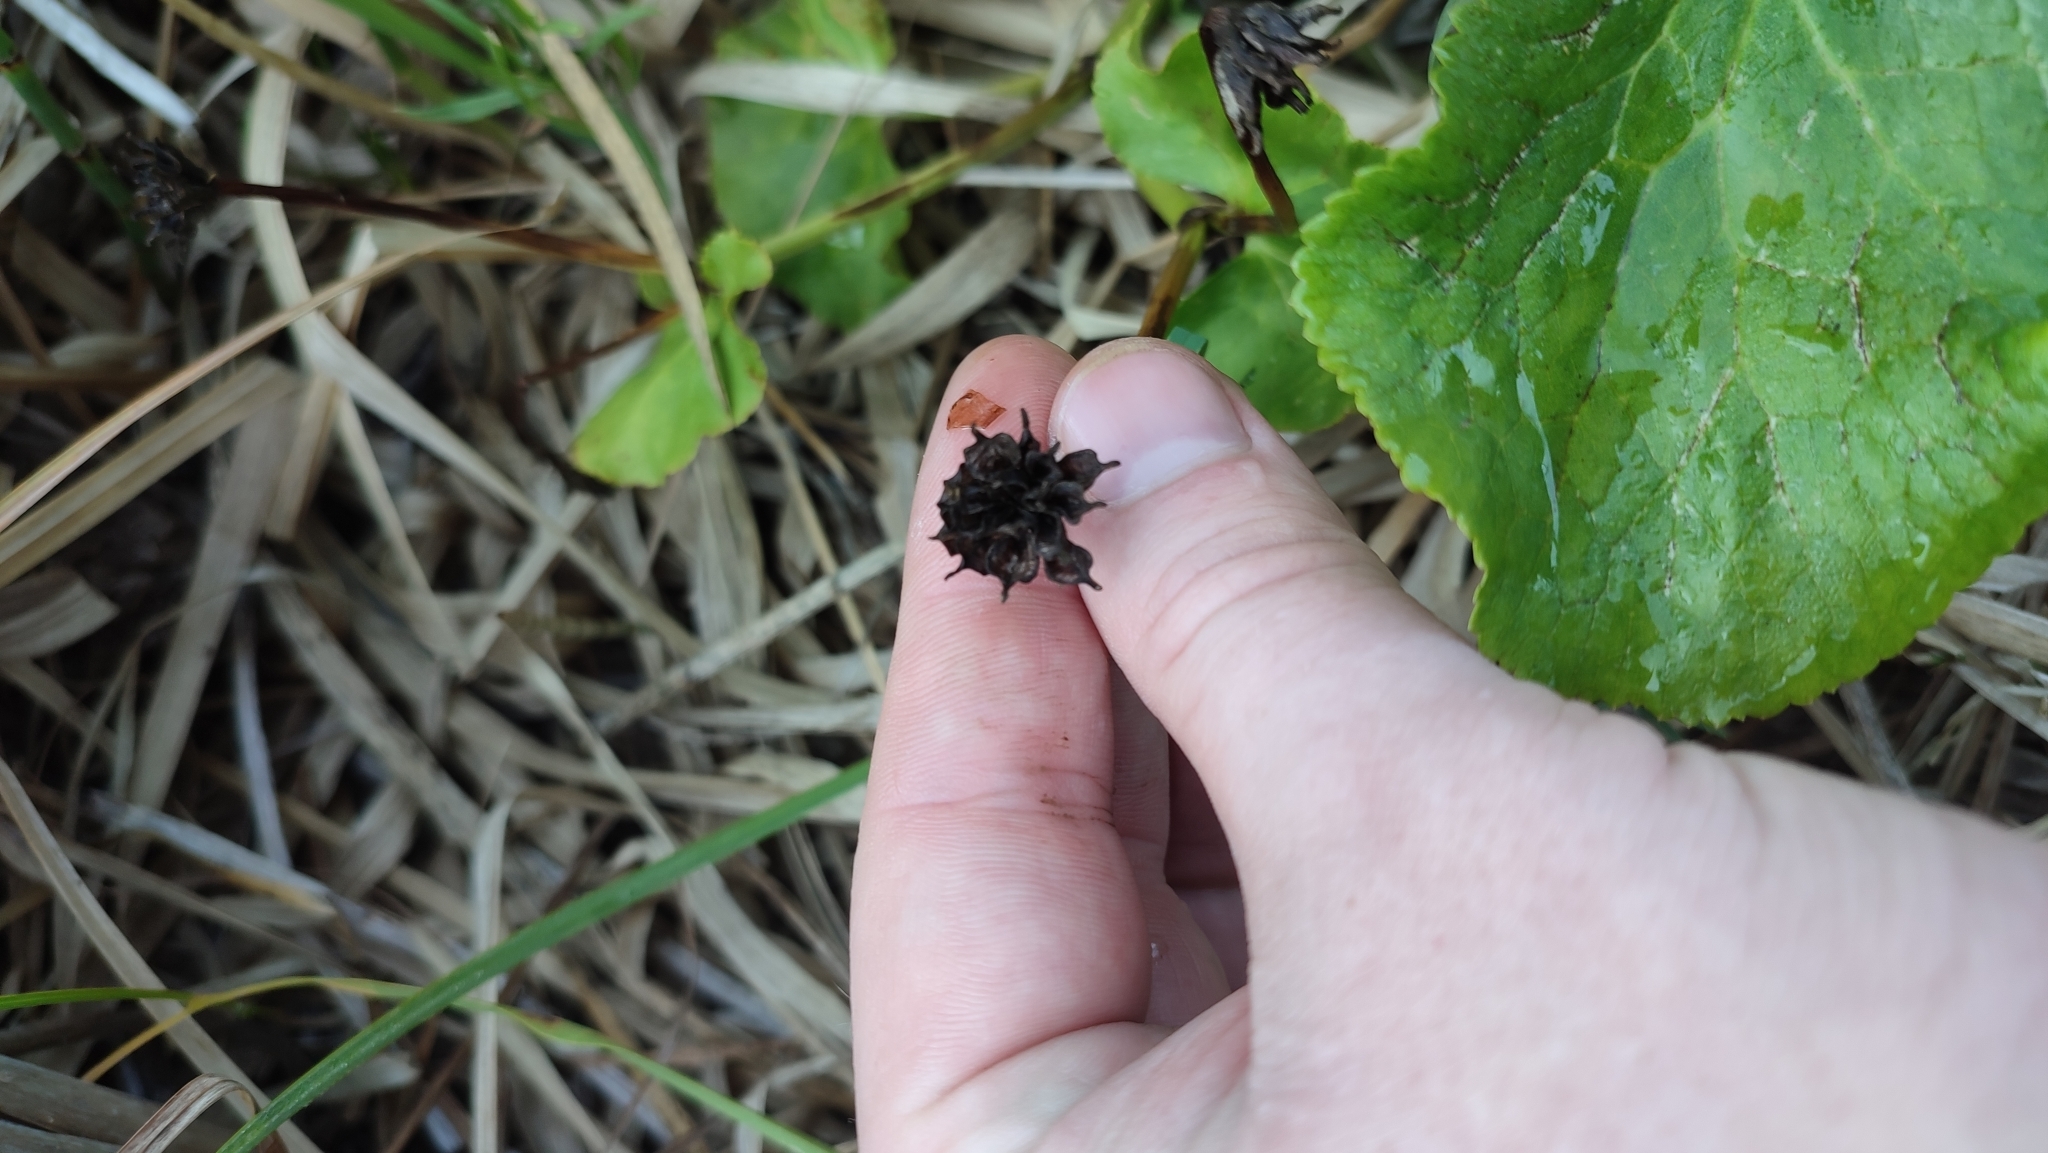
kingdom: Plantae
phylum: Tracheophyta
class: Magnoliopsida
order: Ranunculales
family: Ranunculaceae
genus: Caltha
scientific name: Caltha palustris
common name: Marsh marigold
